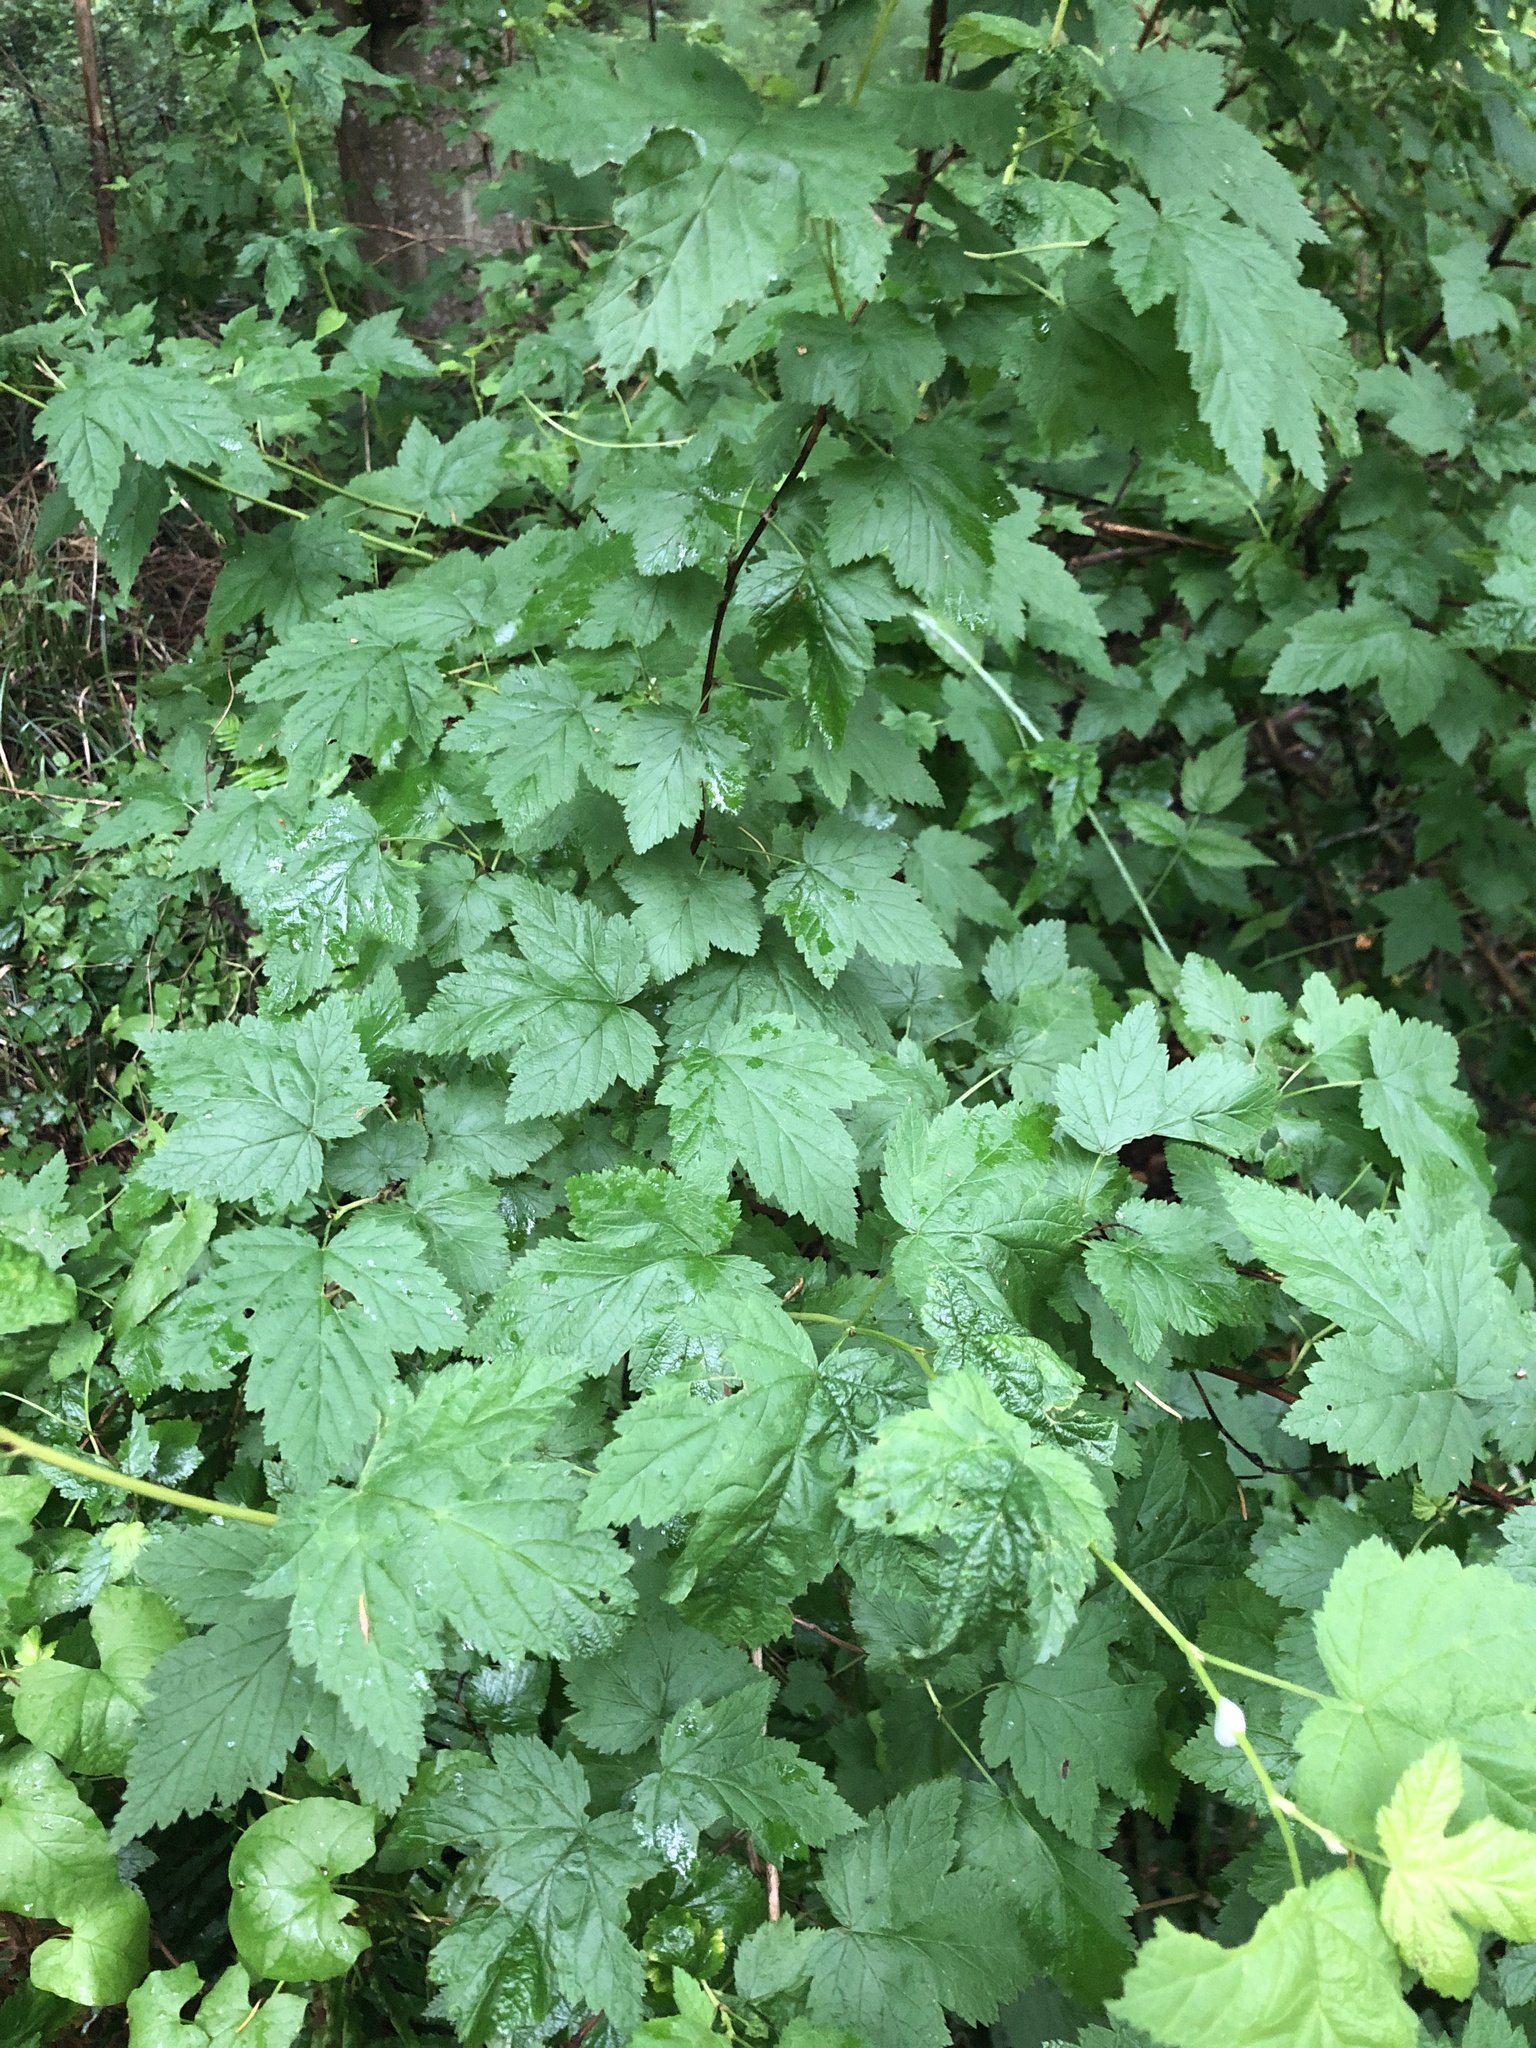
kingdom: Plantae
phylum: Tracheophyta
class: Magnoliopsida
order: Rosales
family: Rosaceae
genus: Physocarpus
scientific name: Physocarpus capitatus
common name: Pacific ninebark
